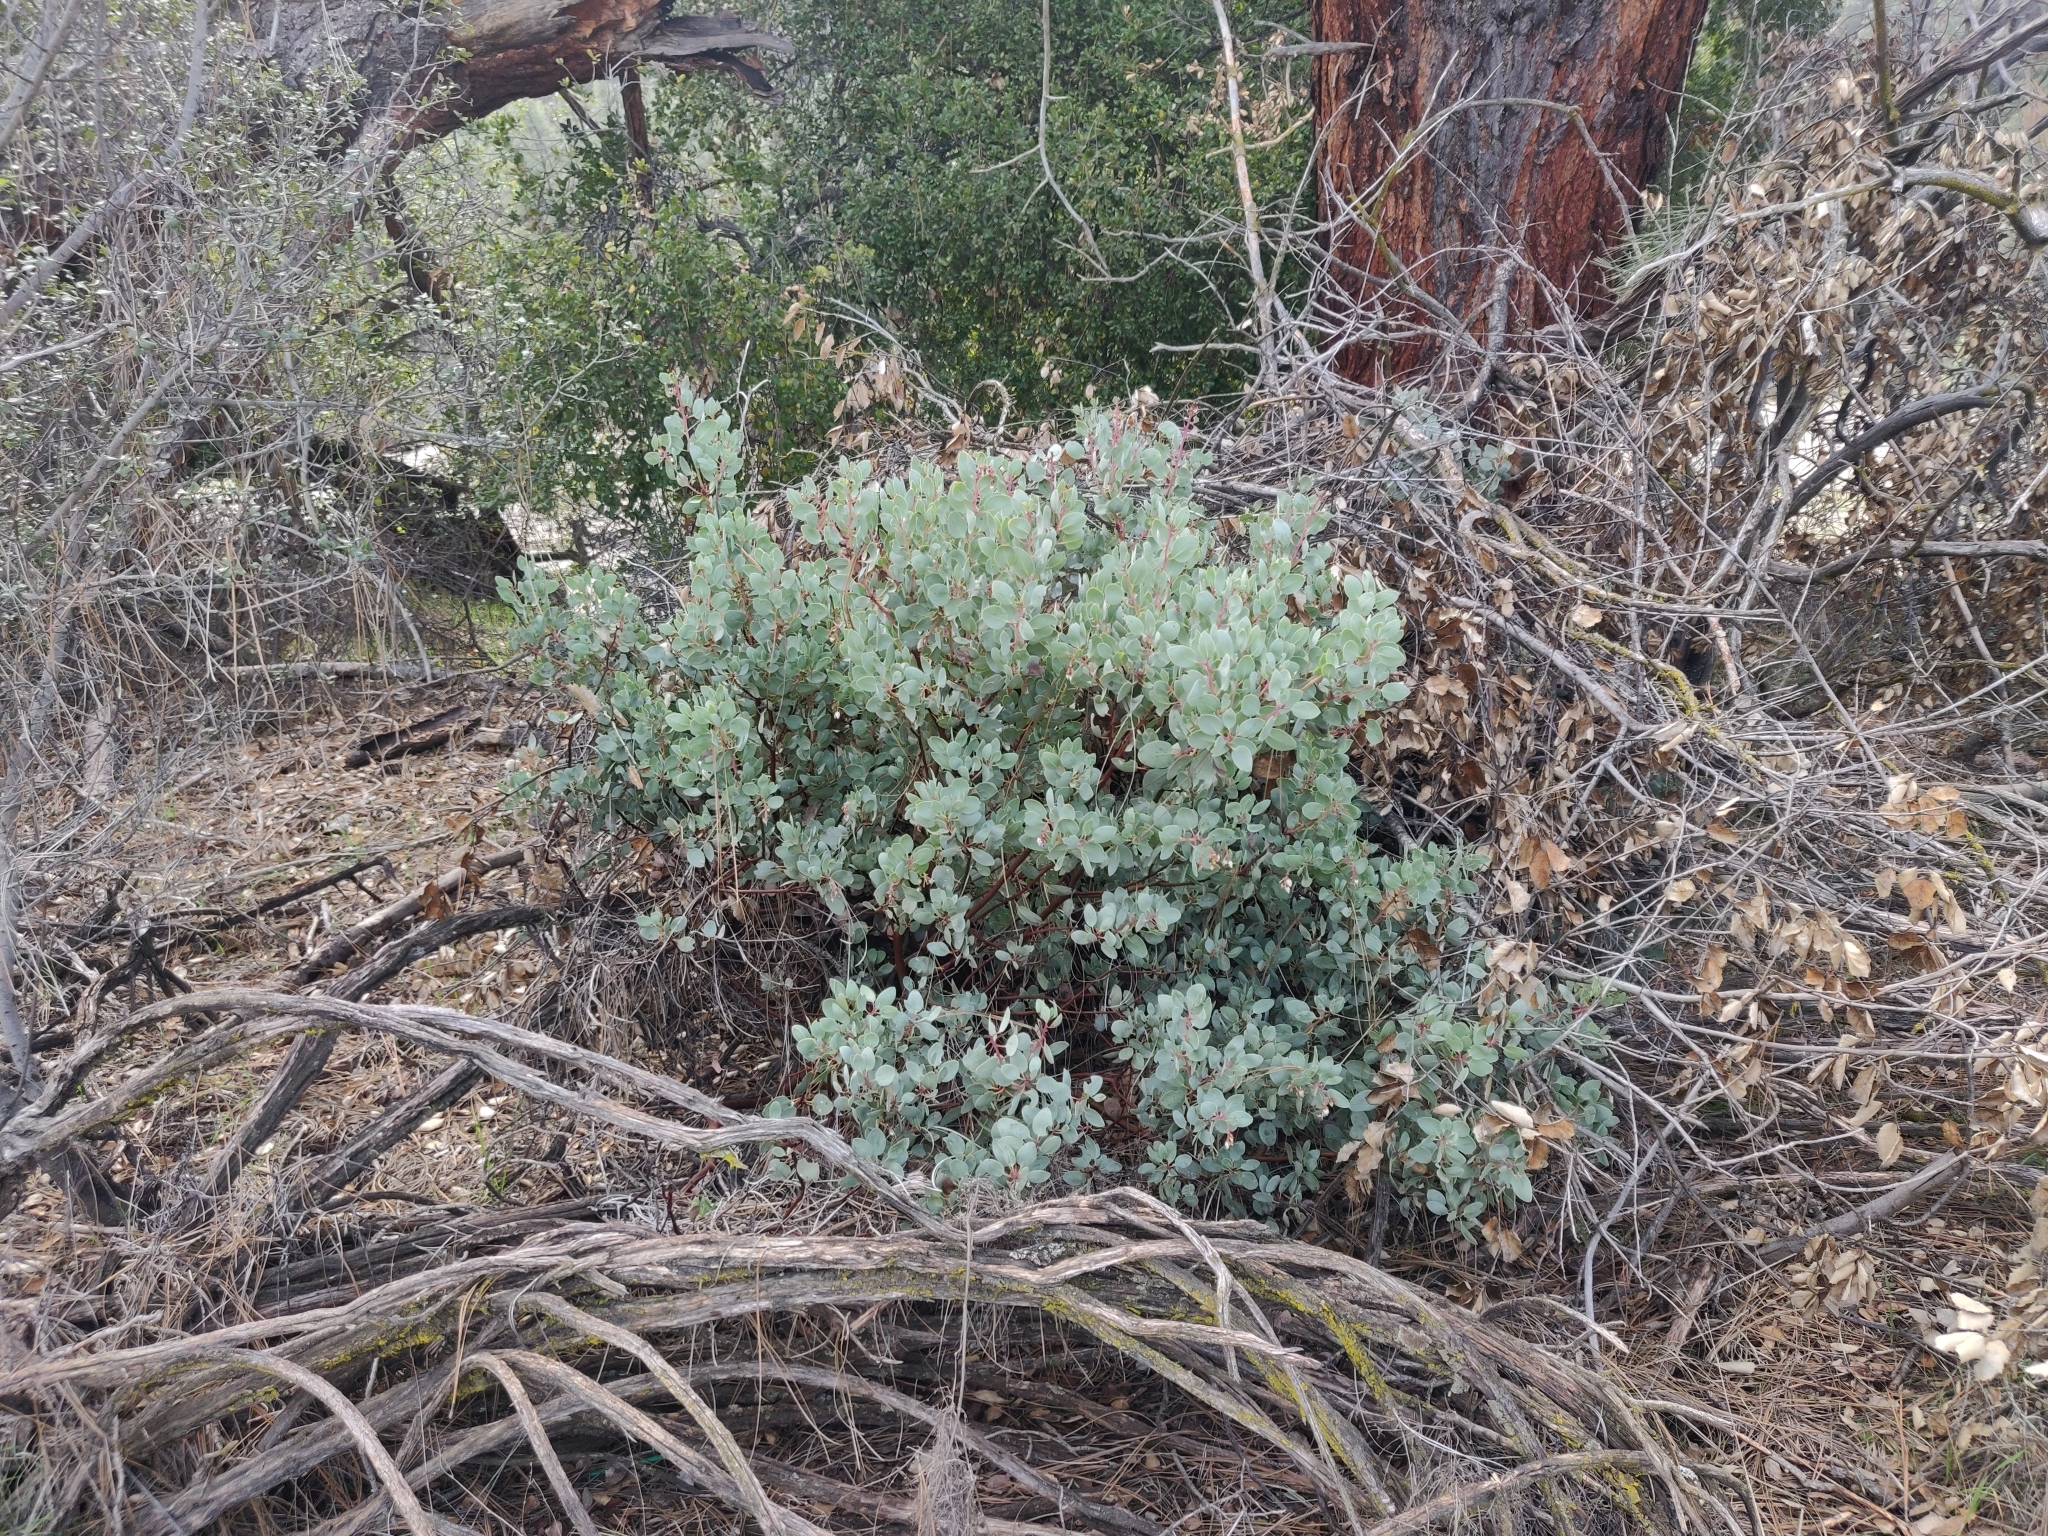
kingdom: Plantae
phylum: Tracheophyta
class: Magnoliopsida
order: Ericales
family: Ericaceae
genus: Arctostaphylos
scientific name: Arctostaphylos glauca
